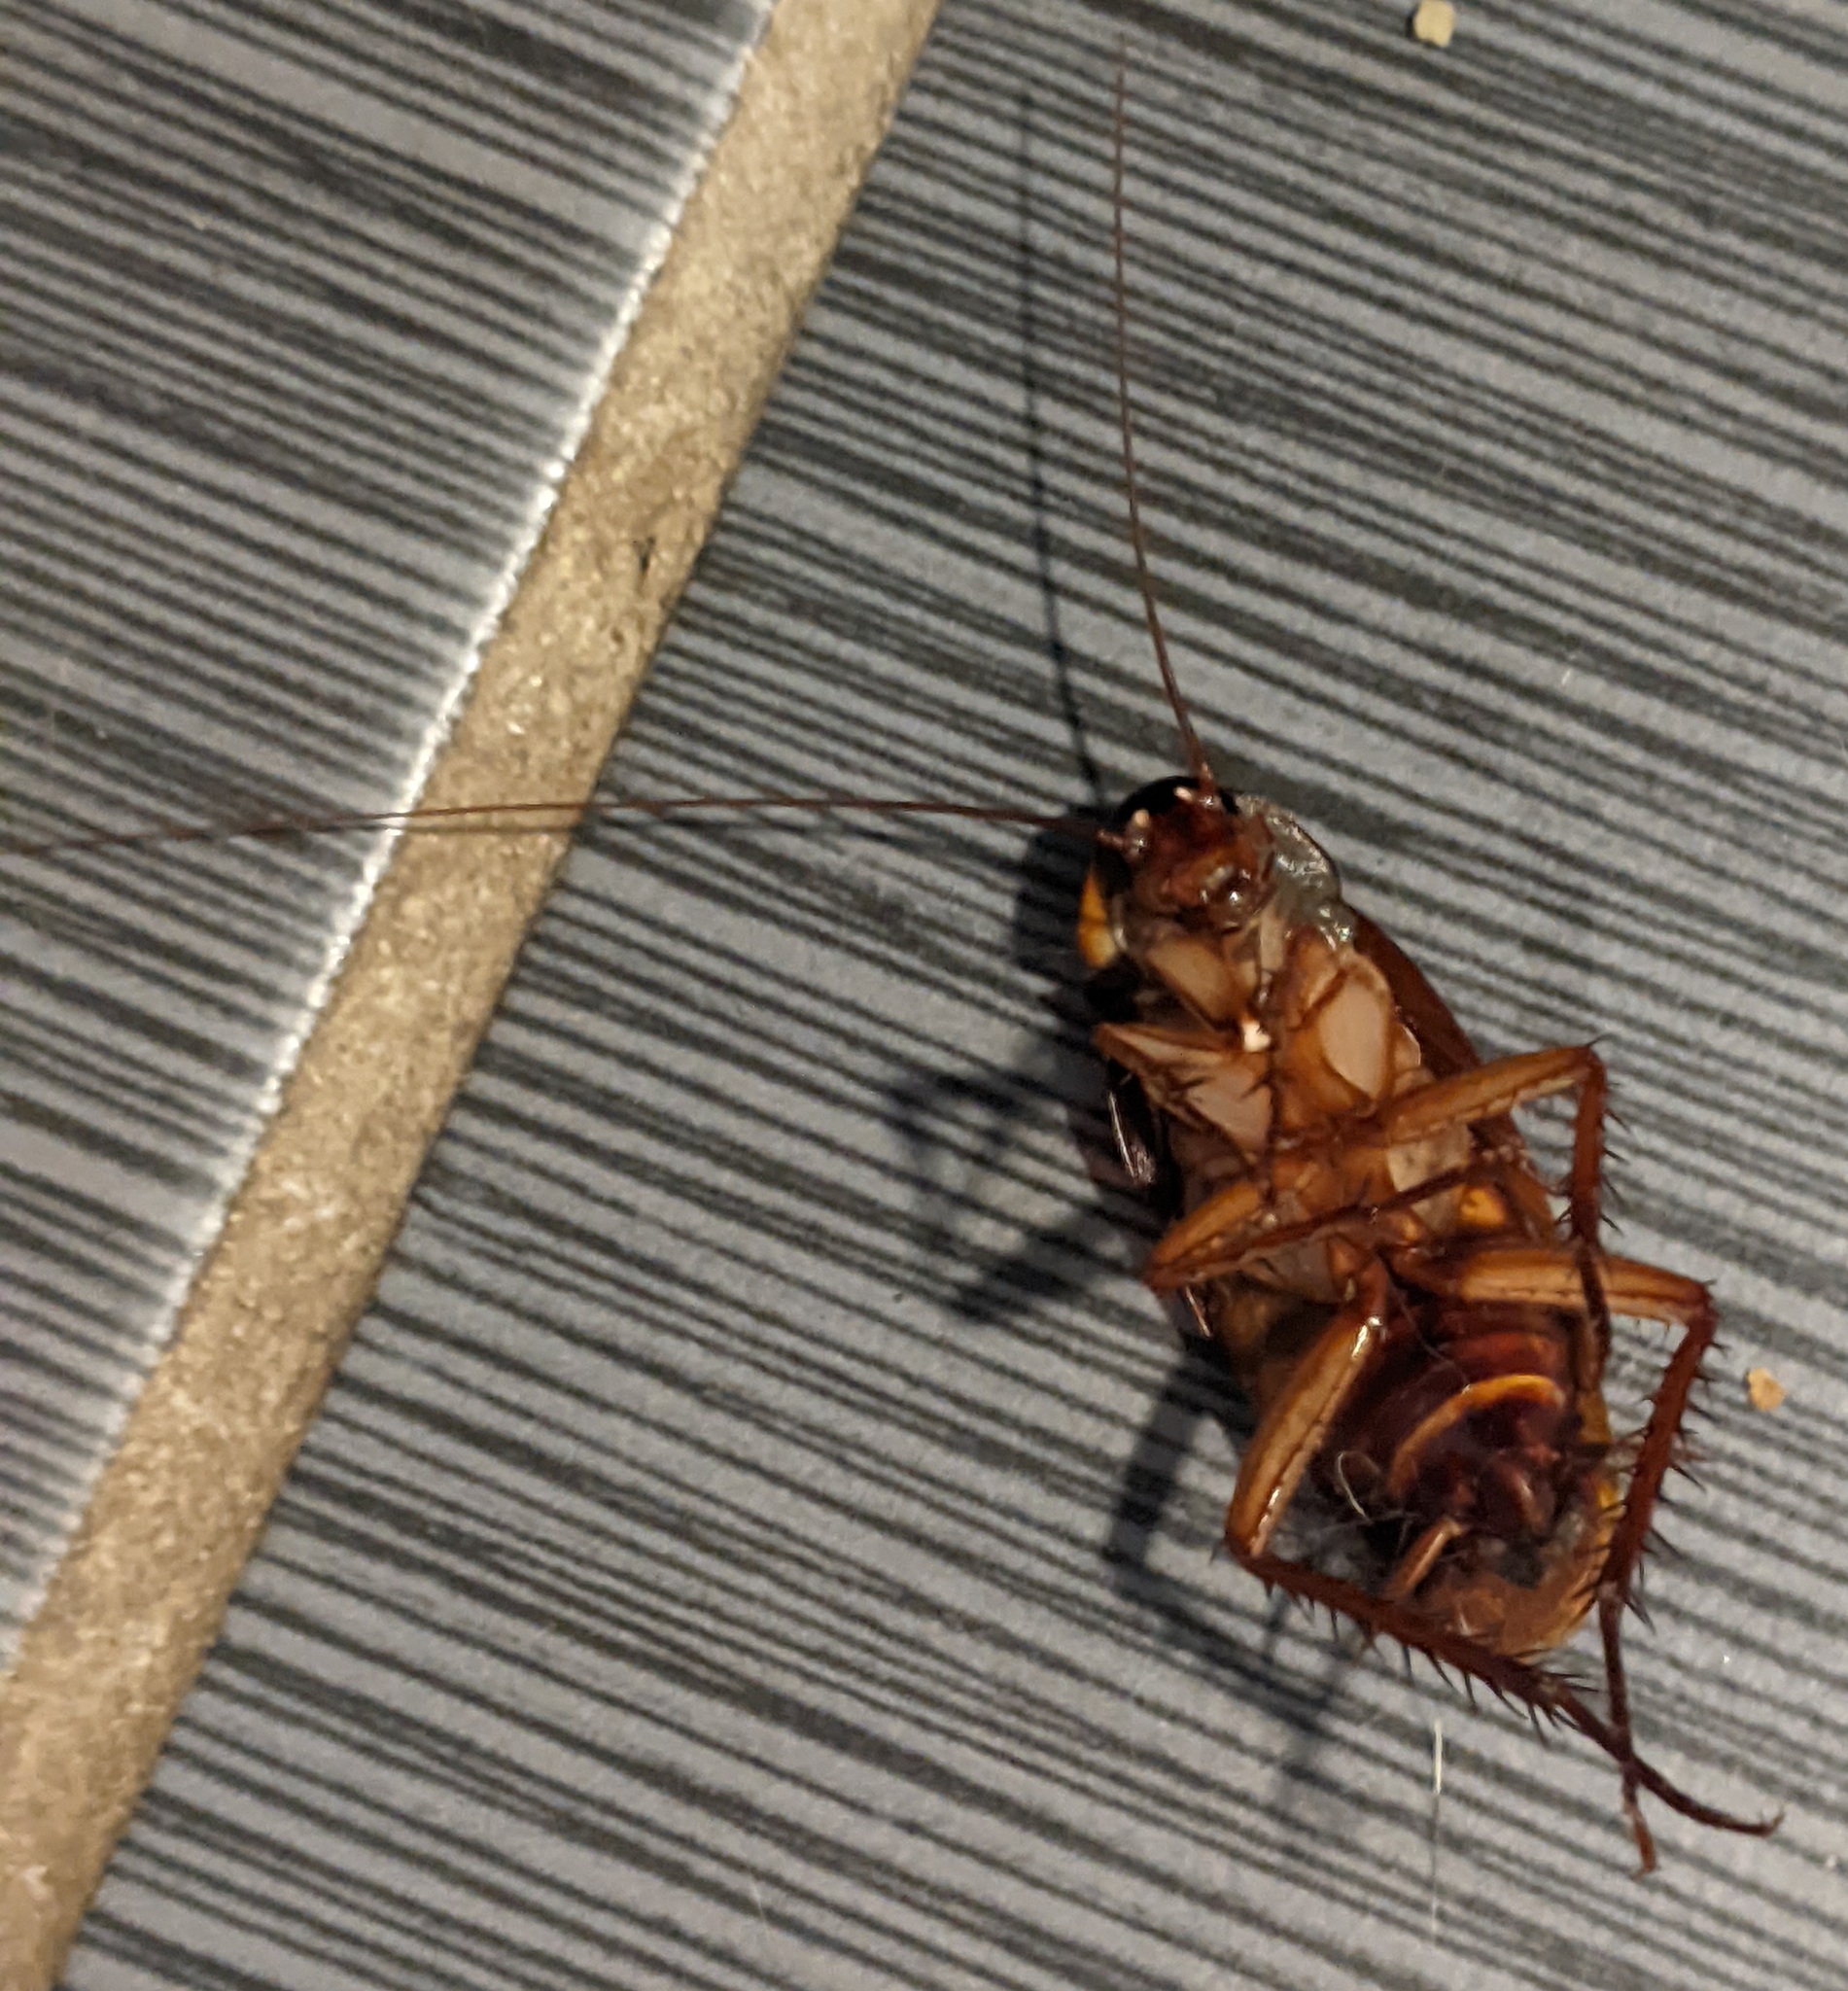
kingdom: Animalia
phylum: Arthropoda
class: Insecta
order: Blattodea
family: Blattidae
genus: Periplaneta
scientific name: Periplaneta americana
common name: American cockroach
